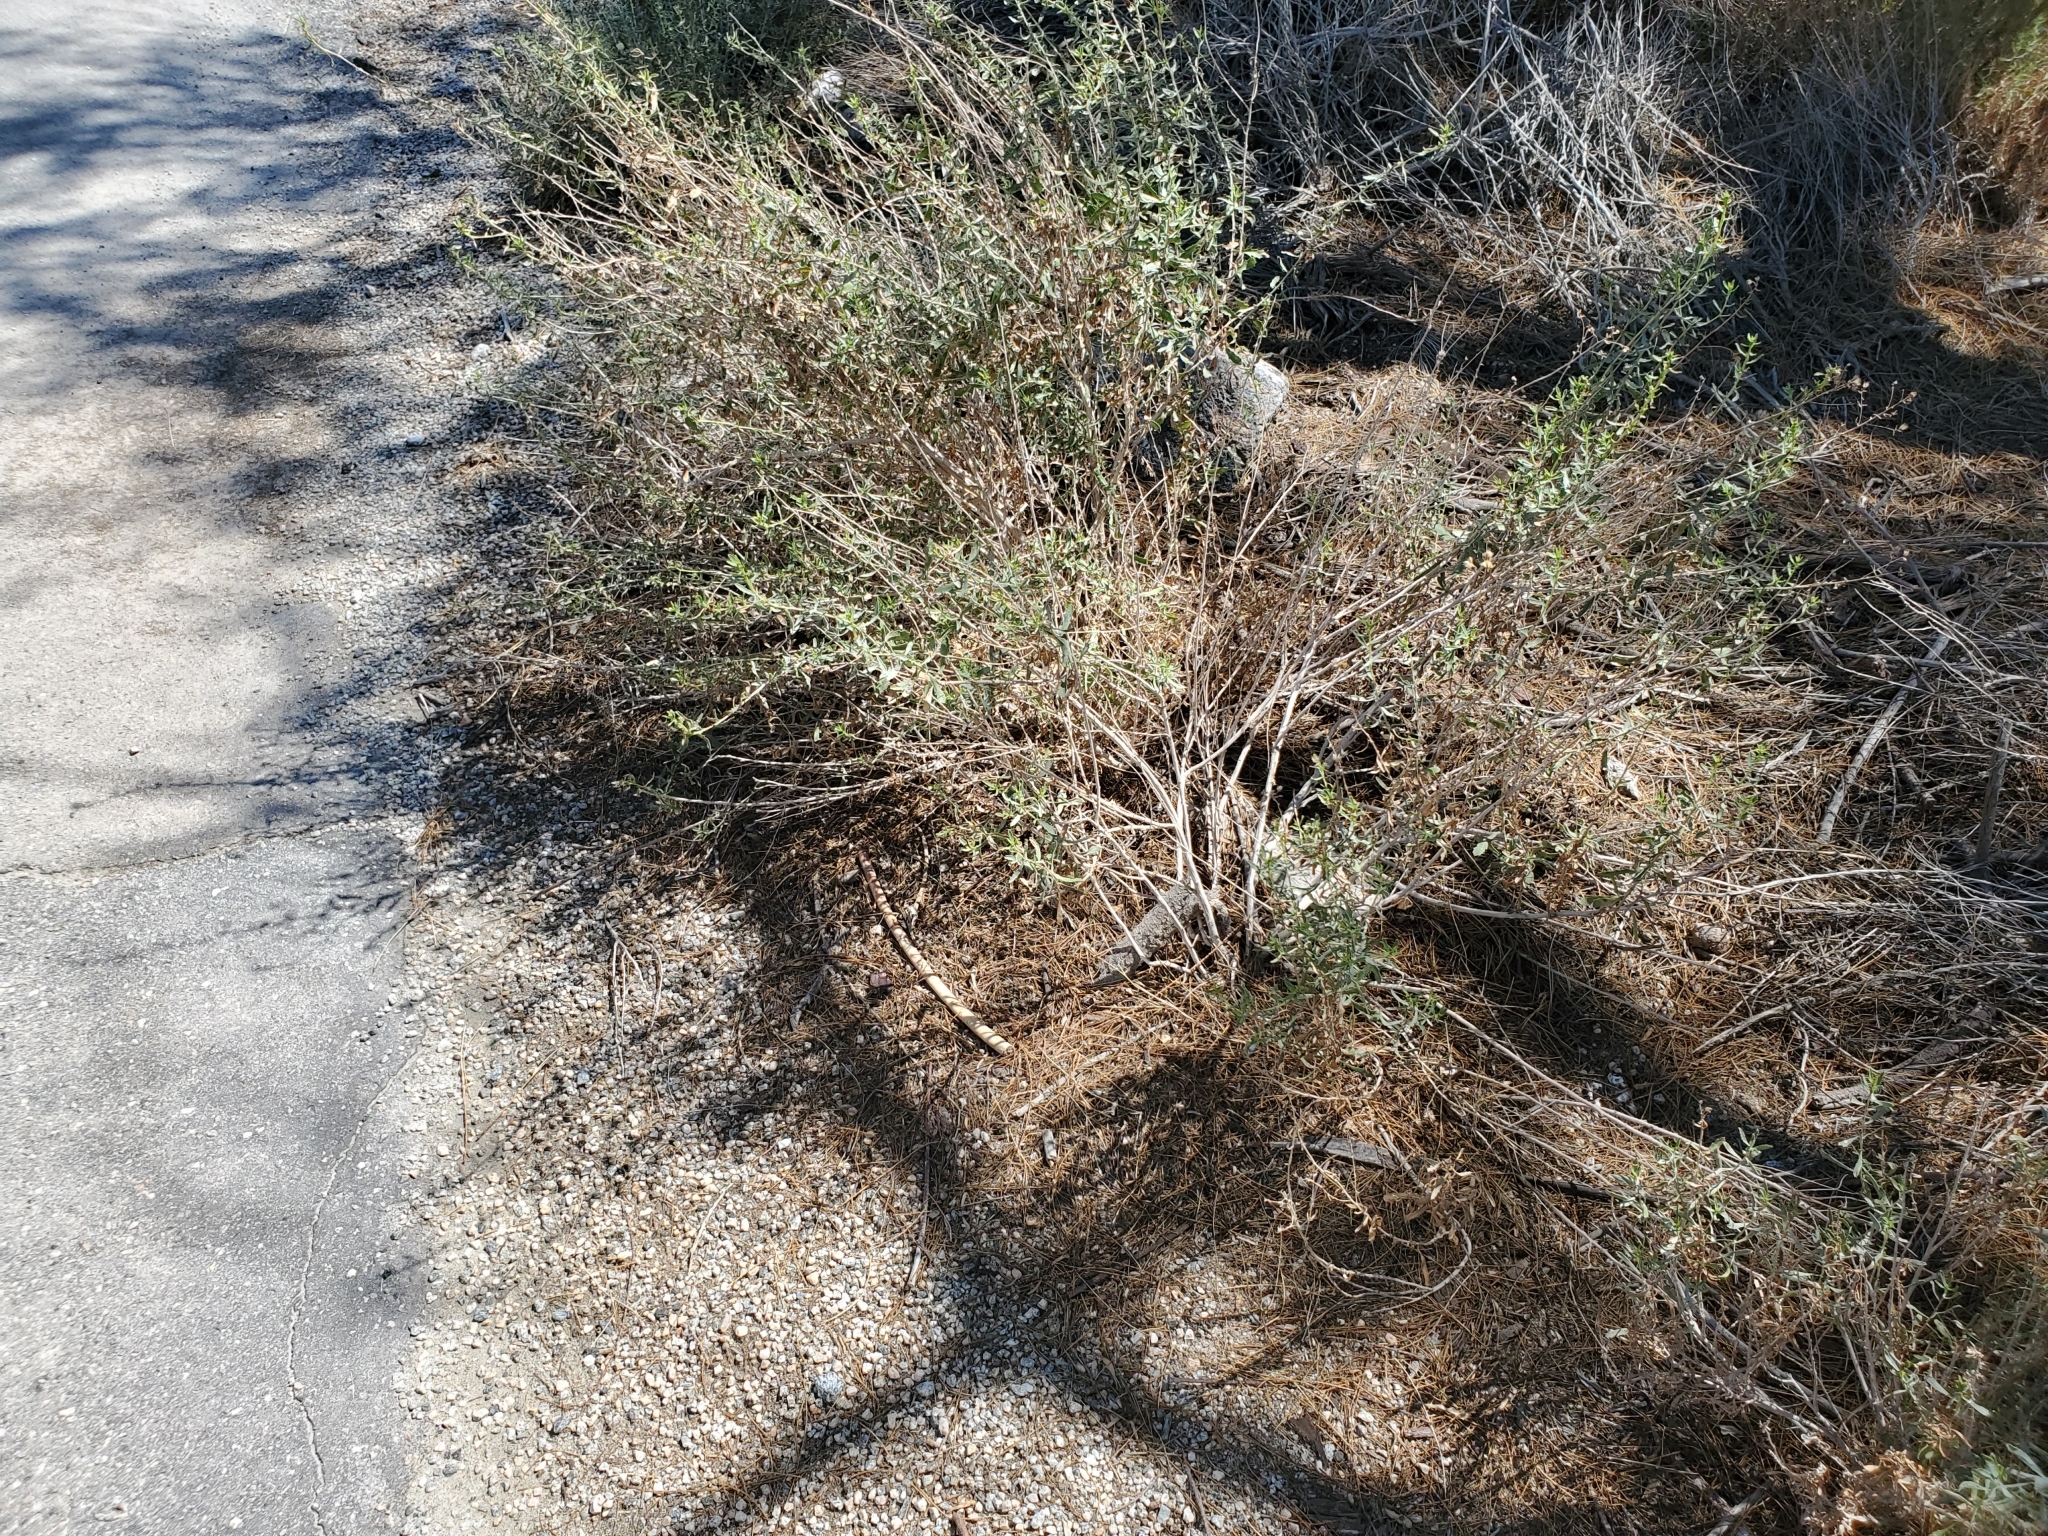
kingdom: Plantae
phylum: Tracheophyta
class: Magnoliopsida
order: Asterales
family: Asteraceae
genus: Isocoma
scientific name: Isocoma acradenia
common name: Alkali jimmyweed
